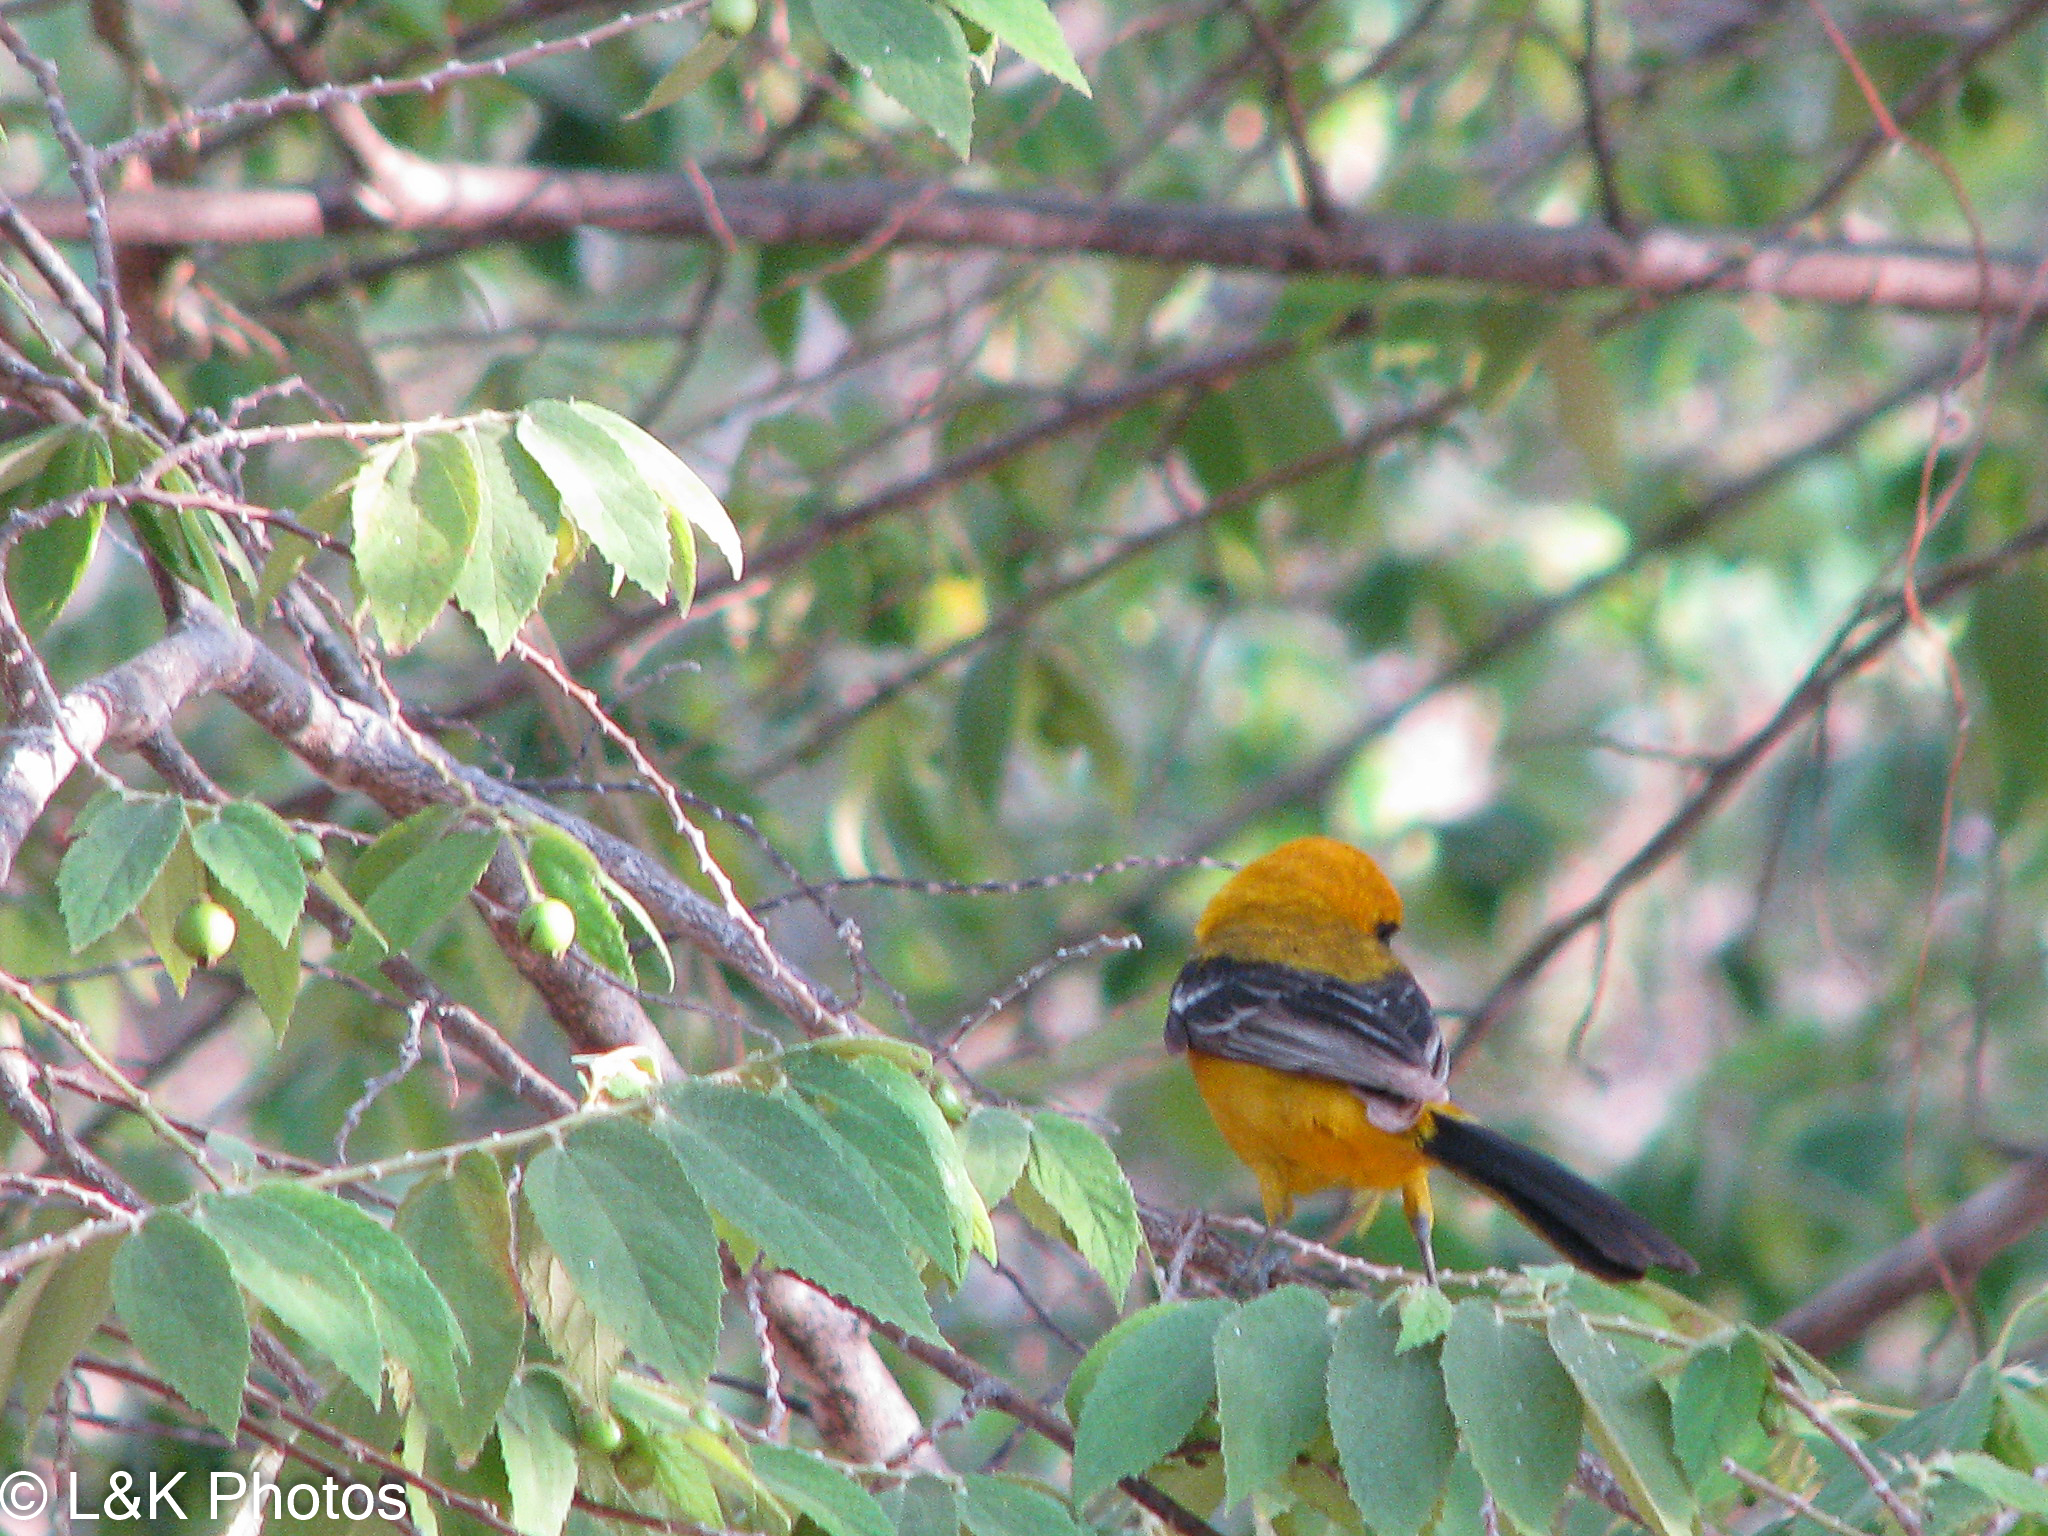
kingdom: Animalia
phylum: Chordata
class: Aves
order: Passeriformes
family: Icteridae
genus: Icterus
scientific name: Icterus auratus
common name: Orange oriole
